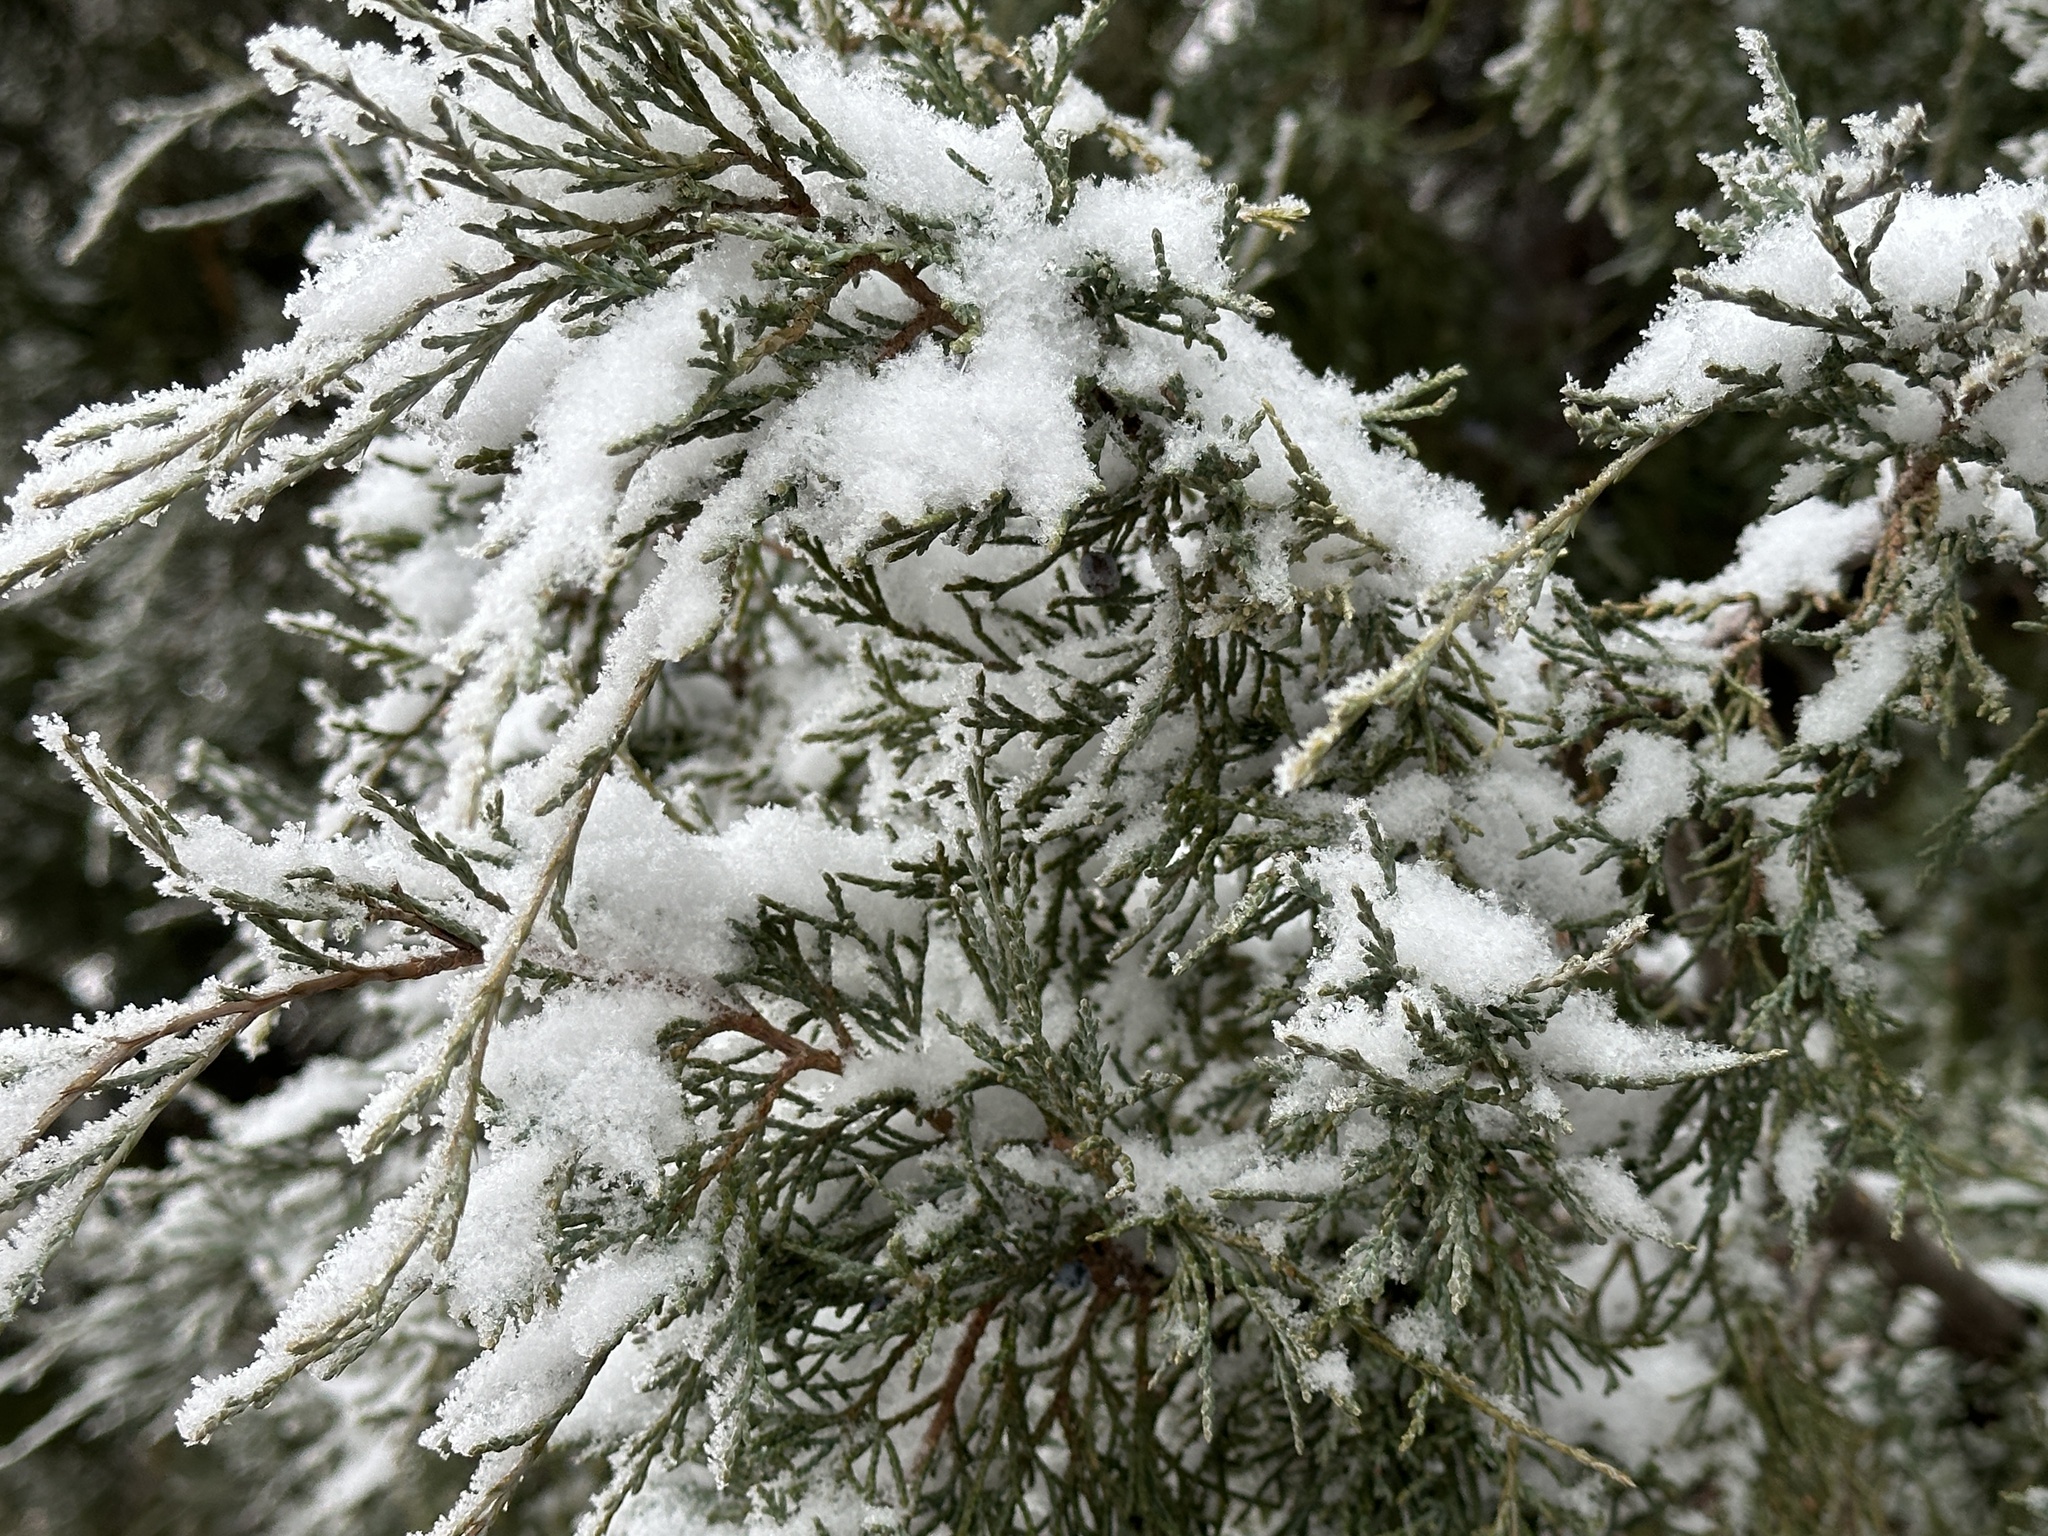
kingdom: Plantae
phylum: Tracheophyta
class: Pinopsida
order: Pinales
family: Cupressaceae
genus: Juniperus
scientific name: Juniperus scopulorum
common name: Rocky mountain juniper
